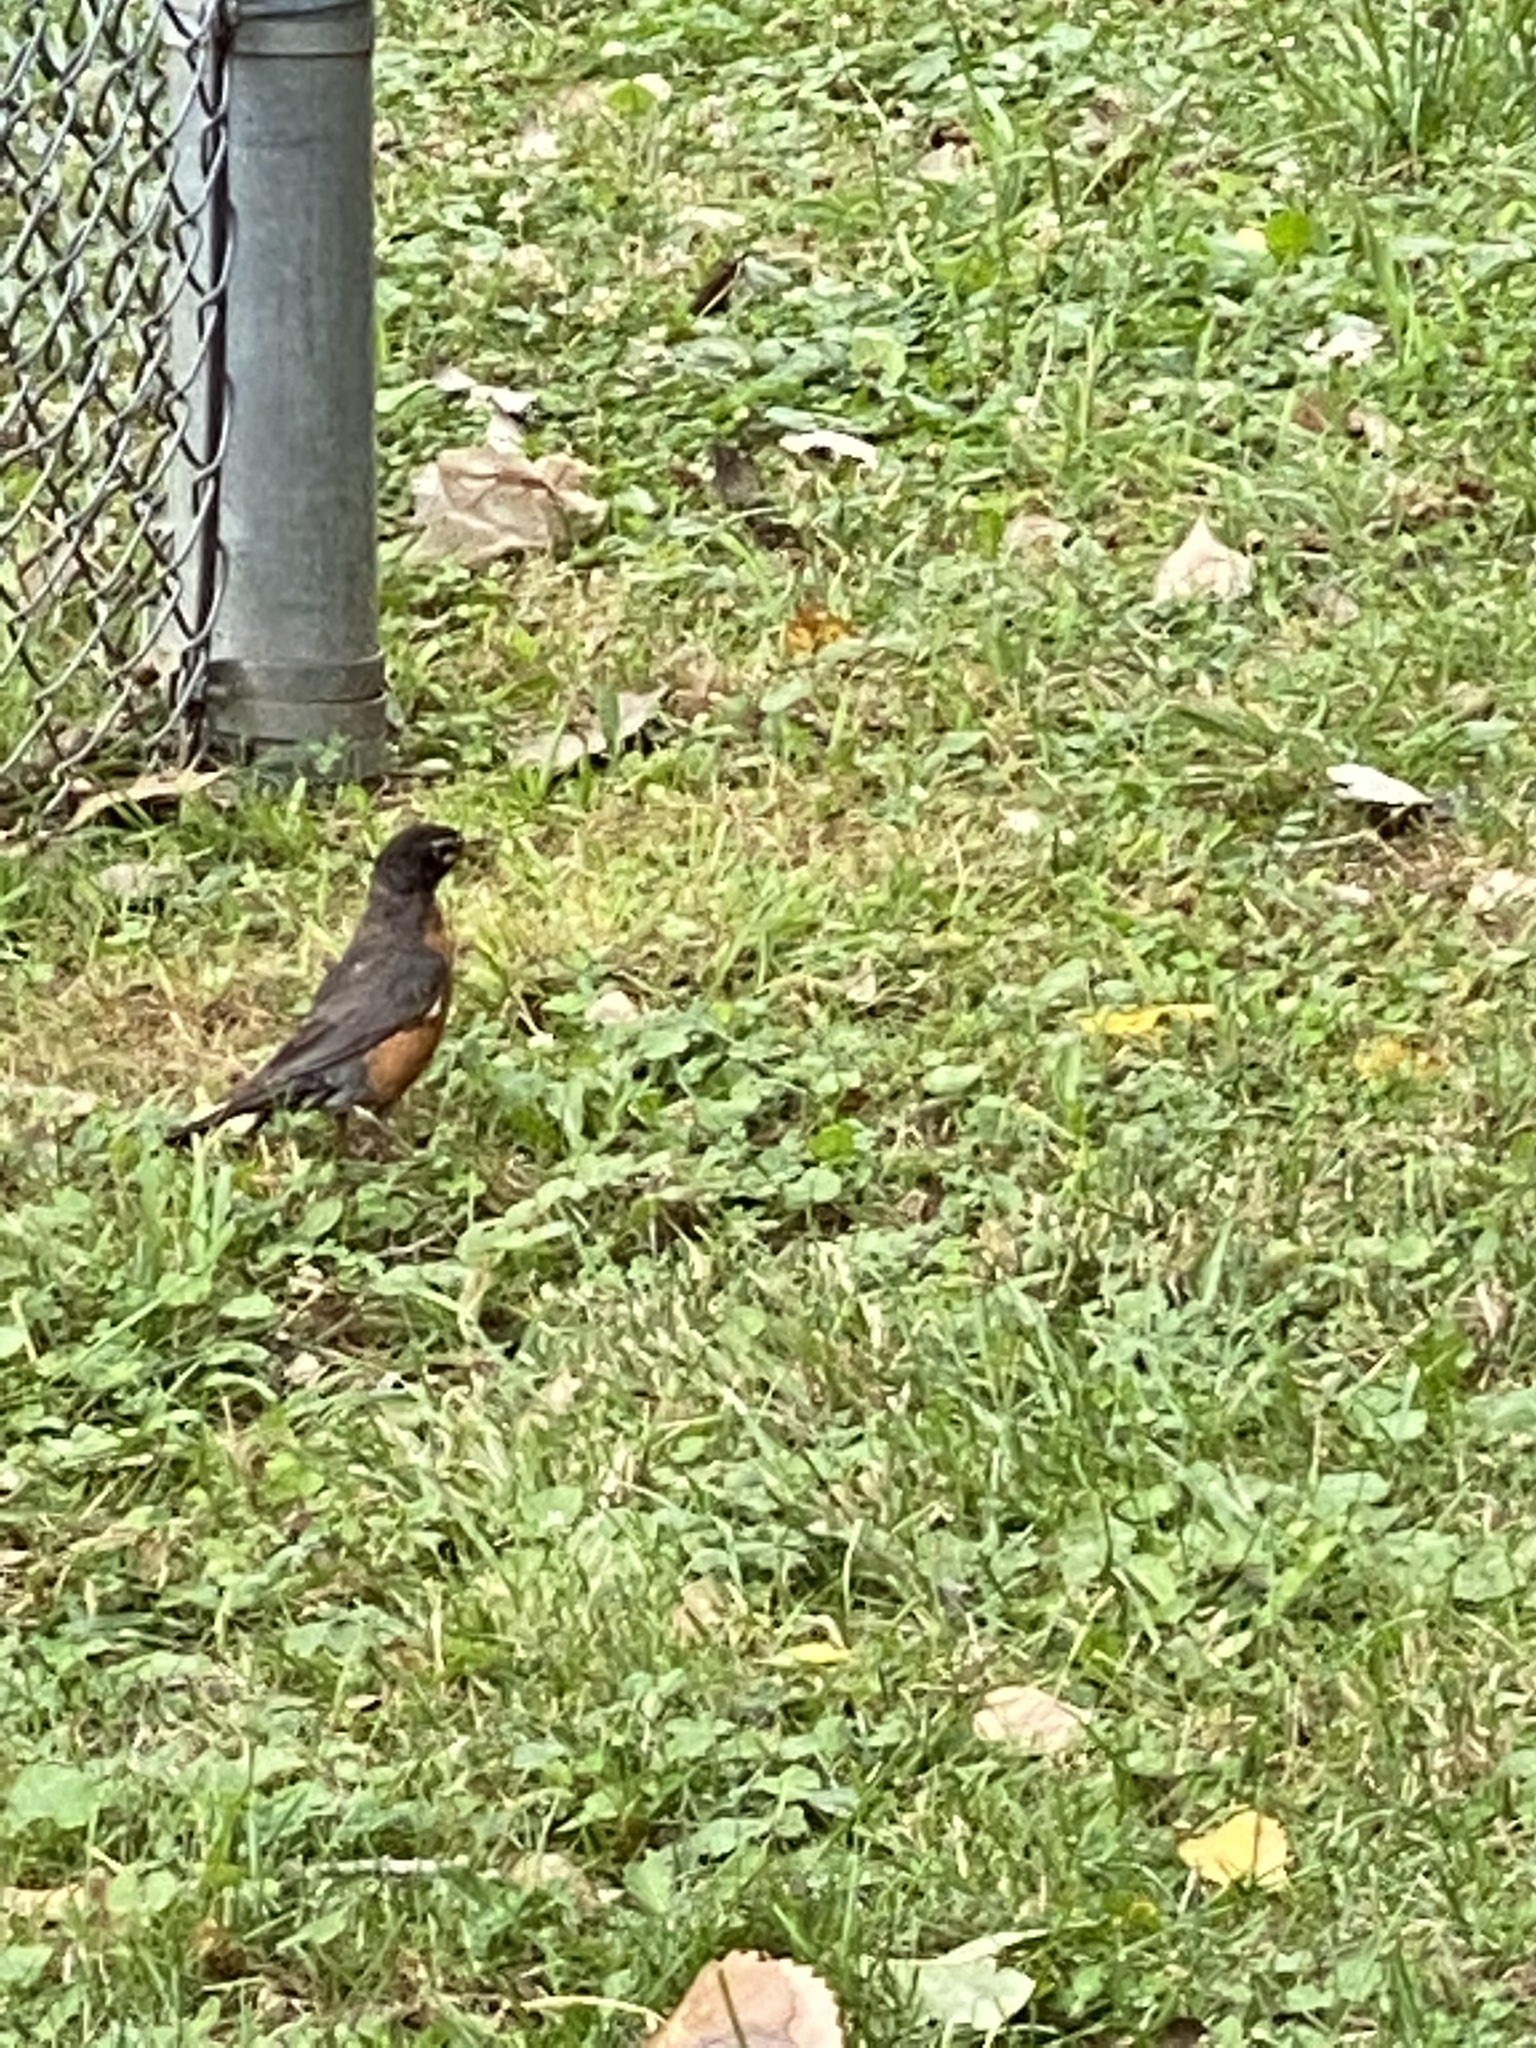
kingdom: Animalia
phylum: Chordata
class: Aves
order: Passeriformes
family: Turdidae
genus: Turdus
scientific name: Turdus migratorius
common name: American robin
